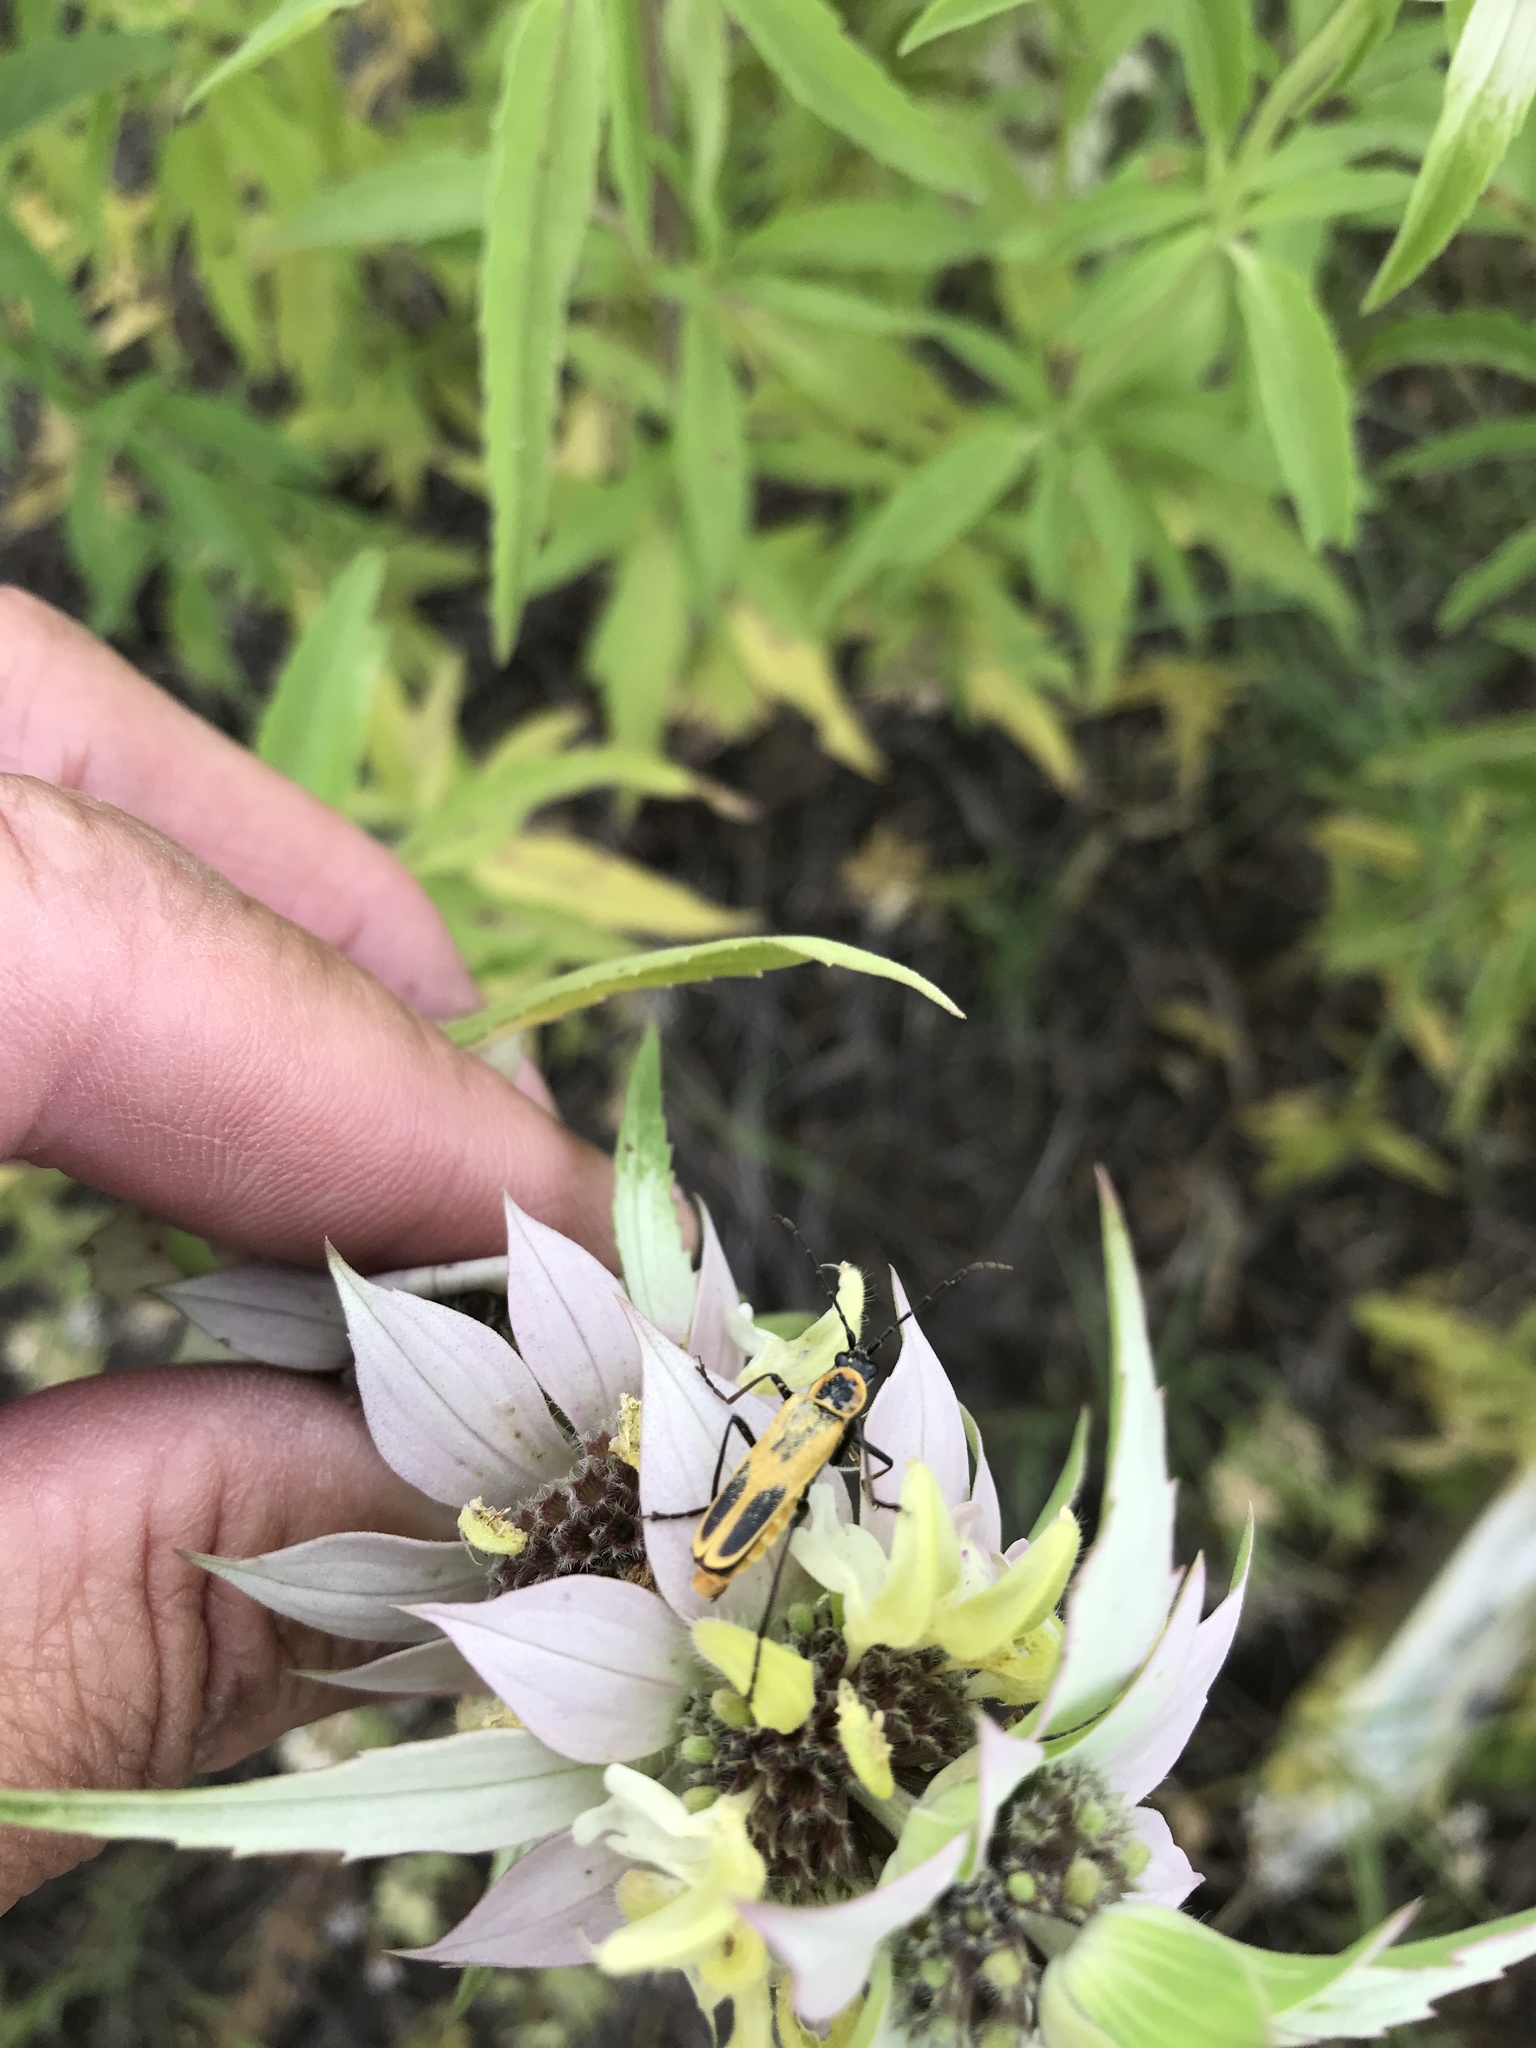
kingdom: Animalia
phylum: Arthropoda
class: Insecta
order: Coleoptera
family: Cantharidae
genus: Chauliognathus
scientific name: Chauliognathus scutellaris
